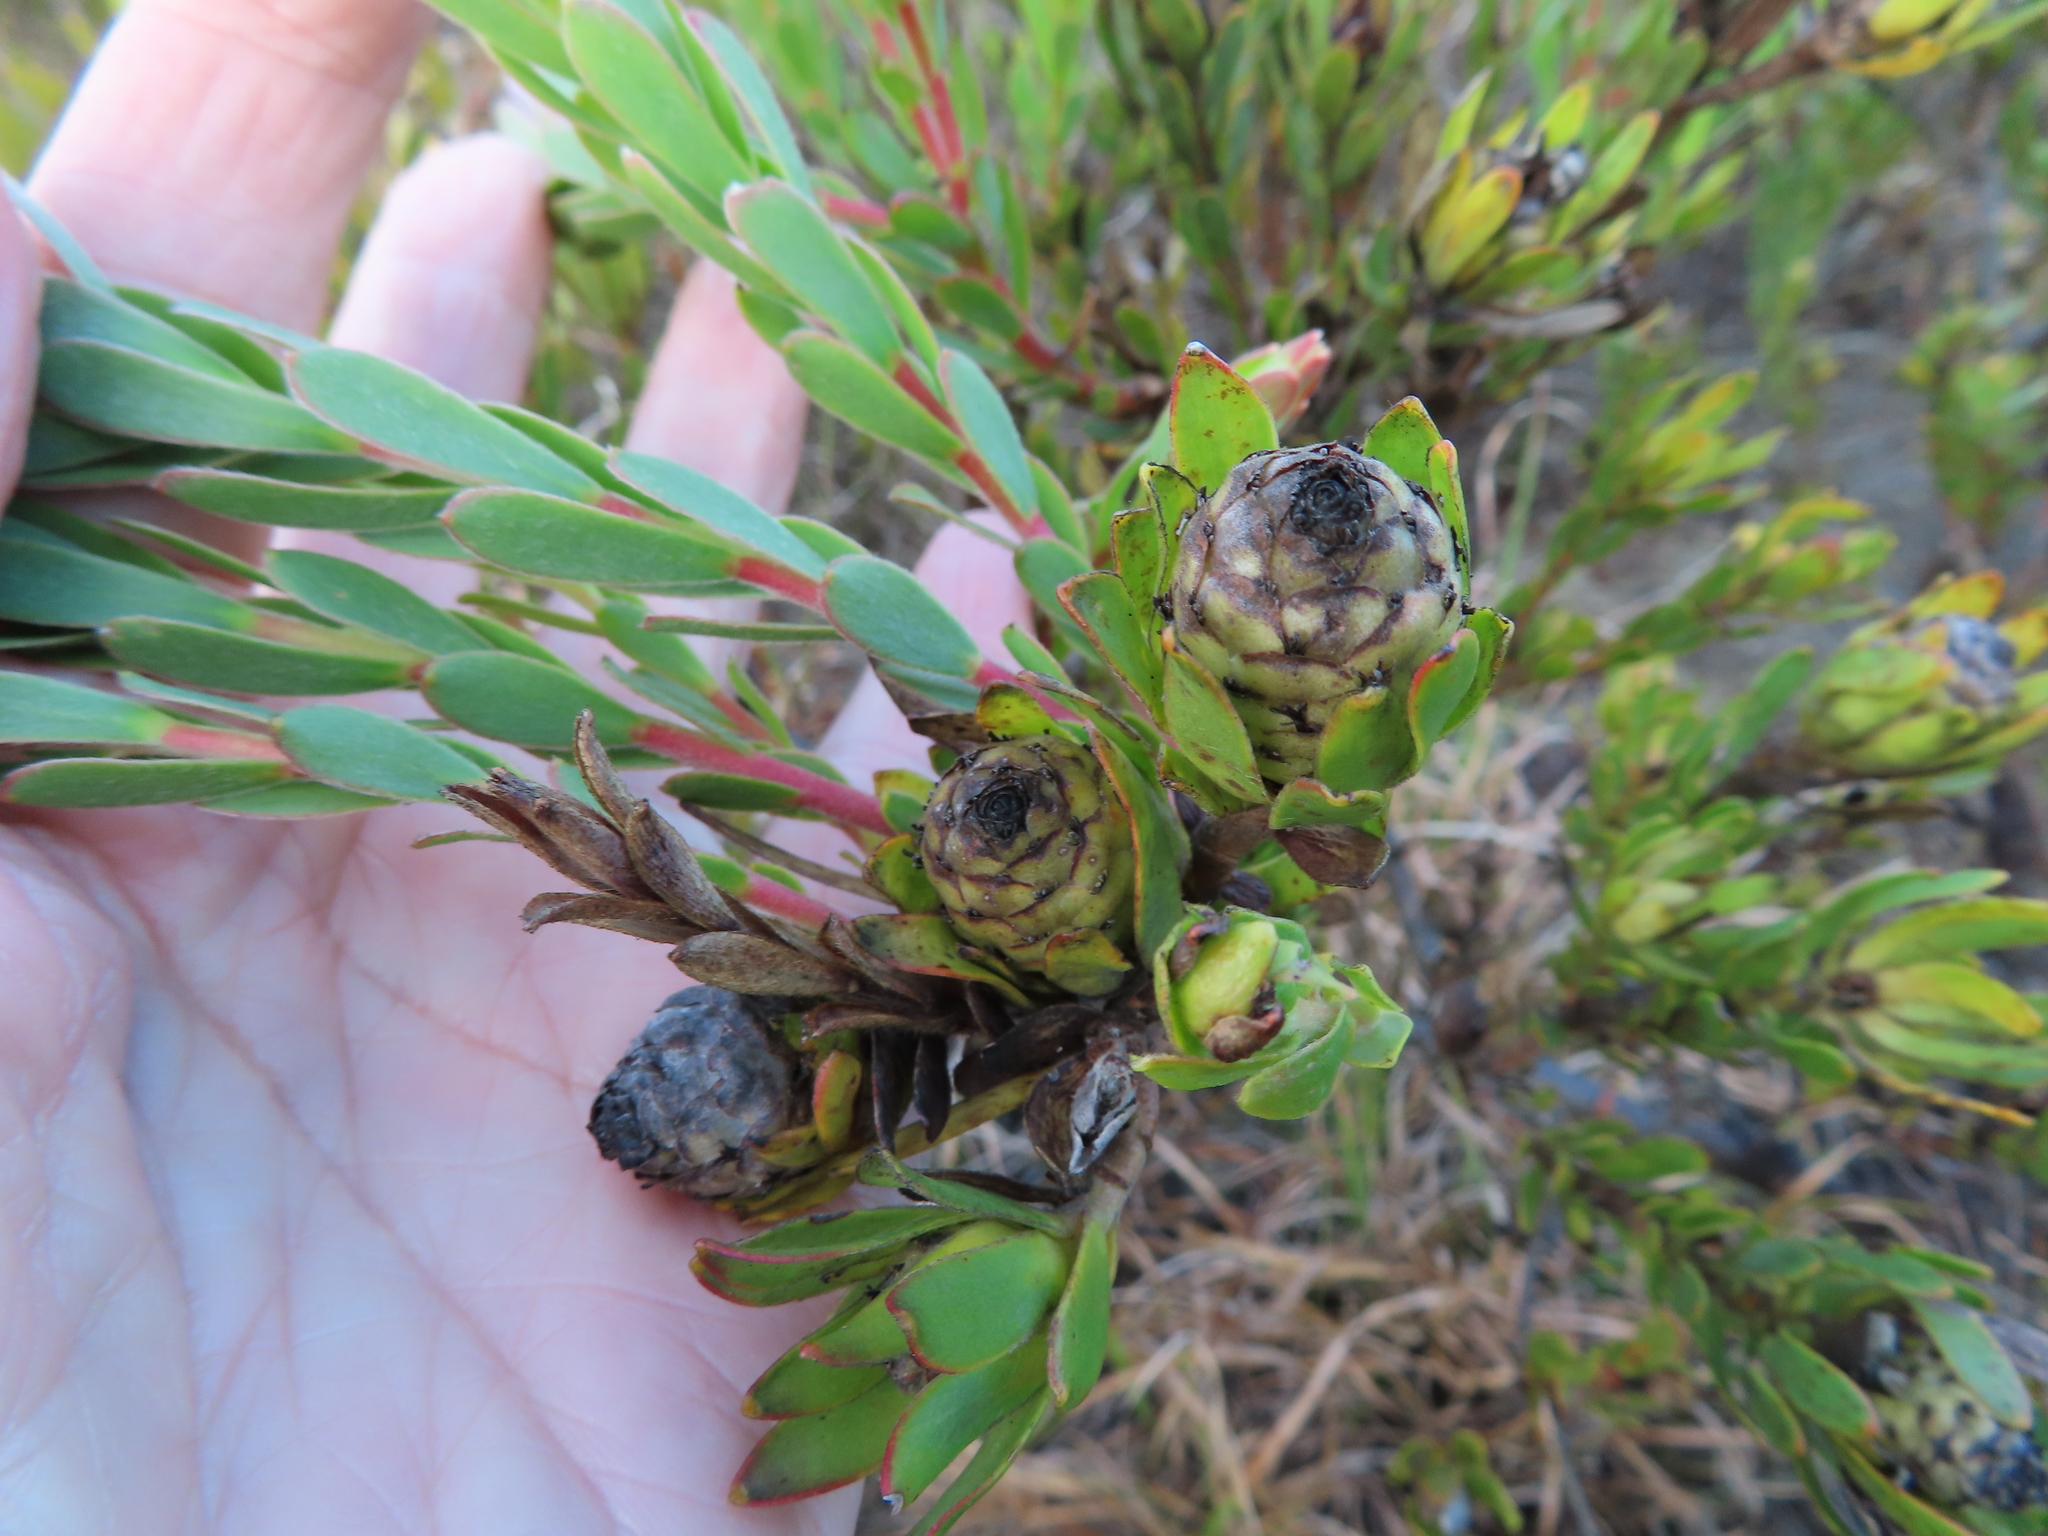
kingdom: Plantae
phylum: Tracheophyta
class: Magnoliopsida
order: Proteales
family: Proteaceae
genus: Leucadendron
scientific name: Leucadendron stelligerum
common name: Agulhas conebush
